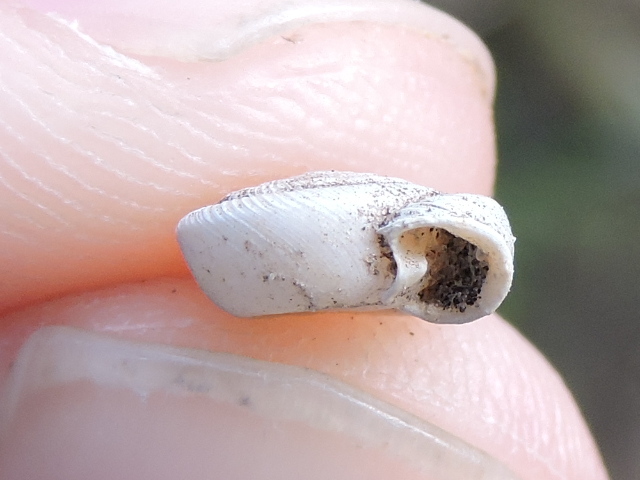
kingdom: Animalia
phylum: Mollusca
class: Gastropoda
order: Stylommatophora
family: Polygyridae
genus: Polygyra
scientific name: Polygyra cereolus
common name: Southern flatcone snail
